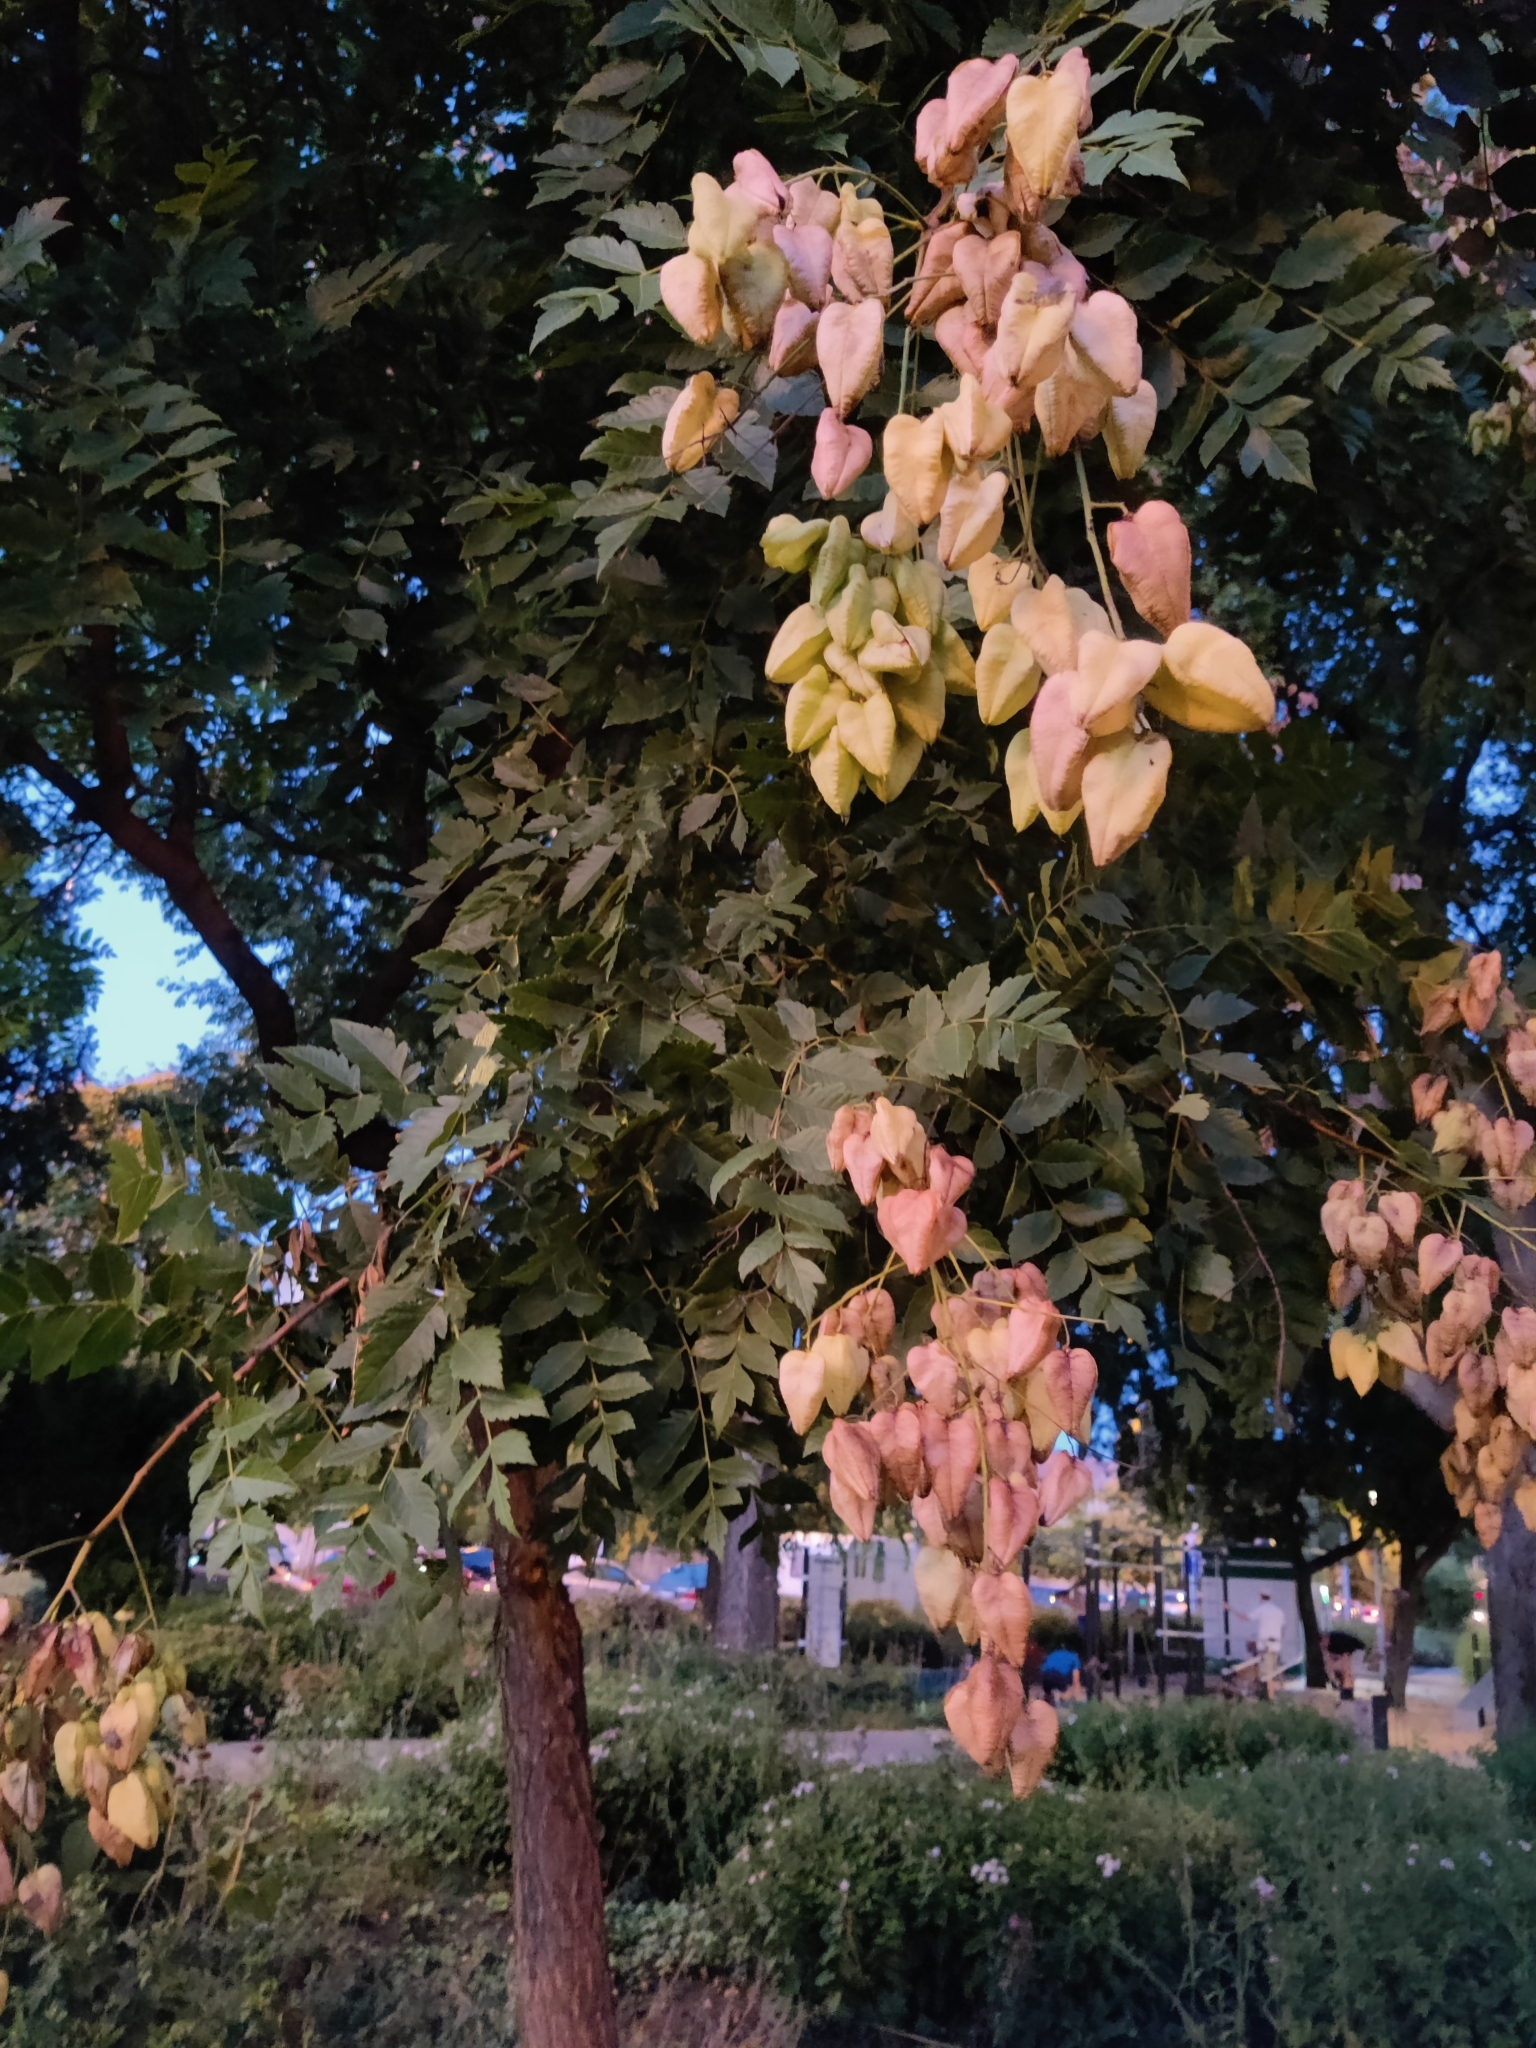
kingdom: Plantae
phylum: Tracheophyta
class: Magnoliopsida
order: Sapindales
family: Sapindaceae
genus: Koelreuteria
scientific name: Koelreuteria paniculata
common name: Pride-of-india
